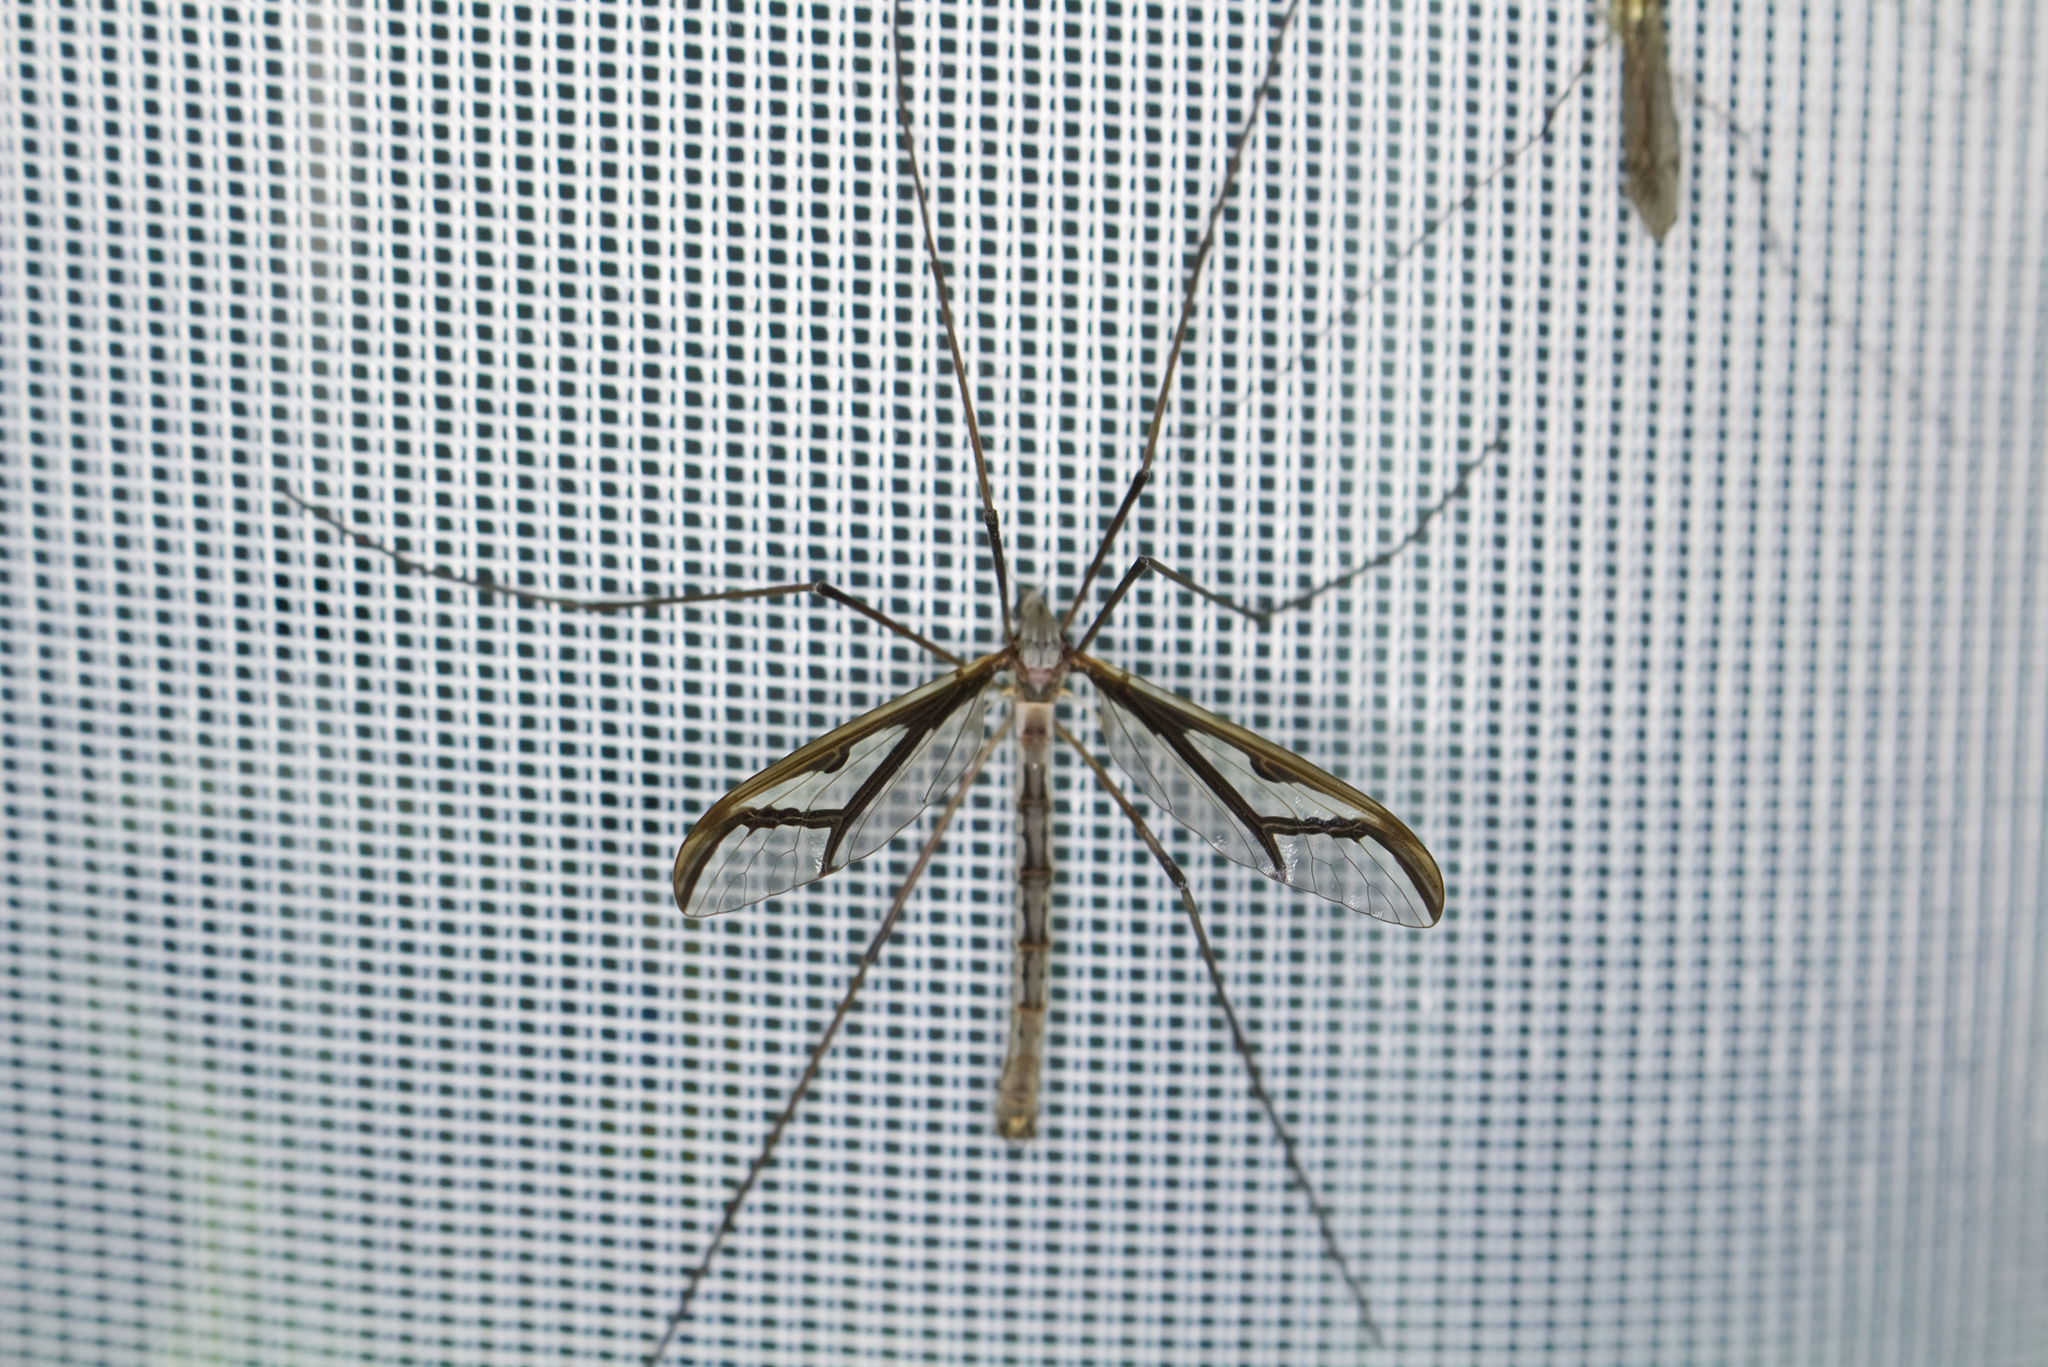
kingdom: Animalia
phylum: Arthropoda
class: Insecta
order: Diptera
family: Pediciidae
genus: Pedicia
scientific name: Pedicia rivosa
